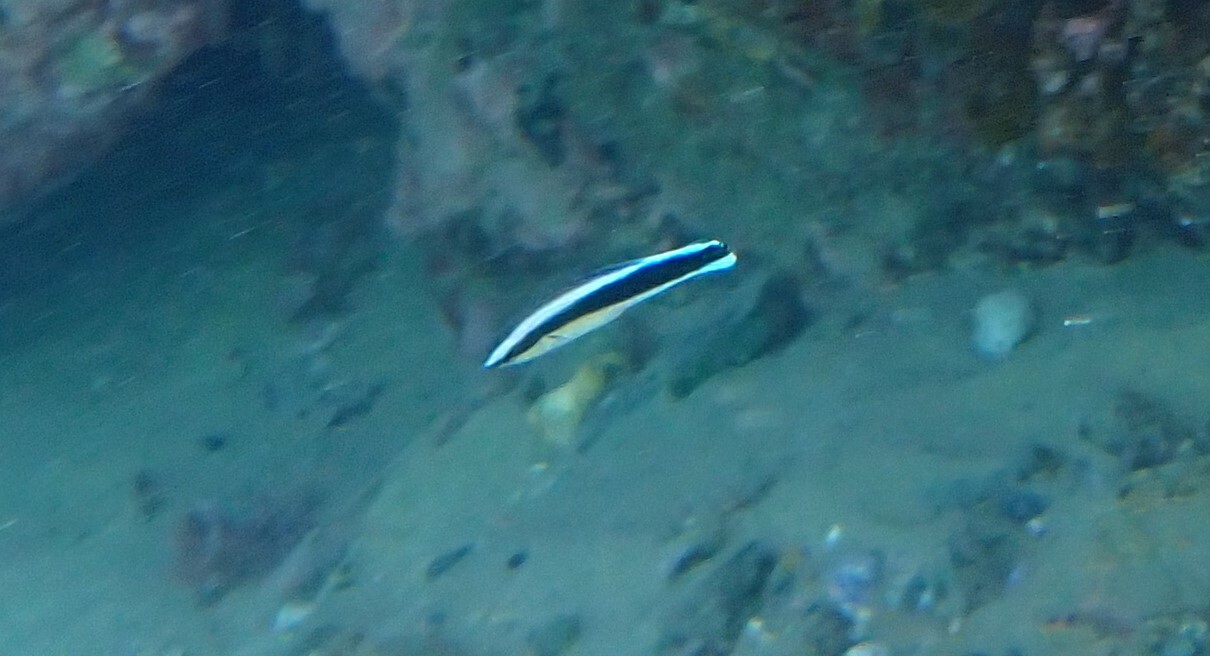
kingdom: Animalia
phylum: Chordata
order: Perciformes
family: Labridae
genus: Labroides
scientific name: Labroides dimidiatus
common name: Blue diesel wrasse
